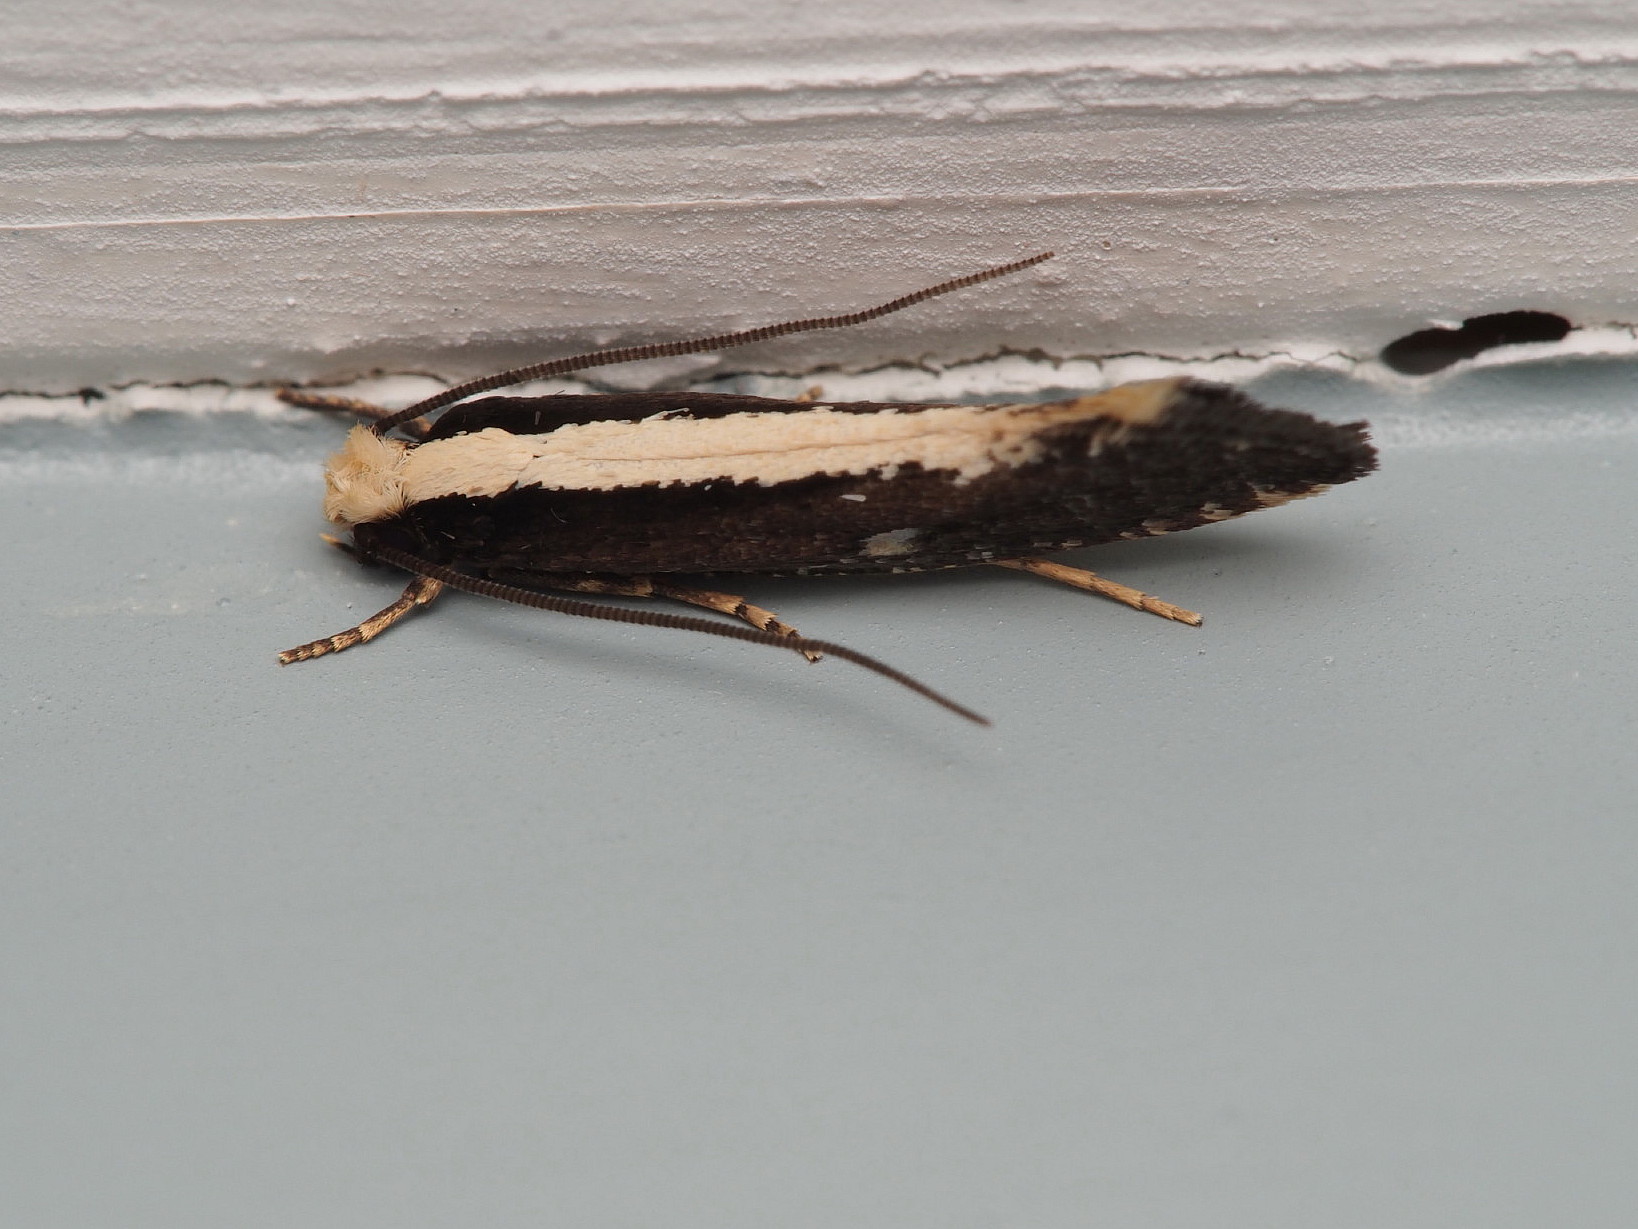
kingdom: Animalia
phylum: Arthropoda
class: Insecta
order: Lepidoptera
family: Tineidae
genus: Monopis
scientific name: Monopis ethelella
